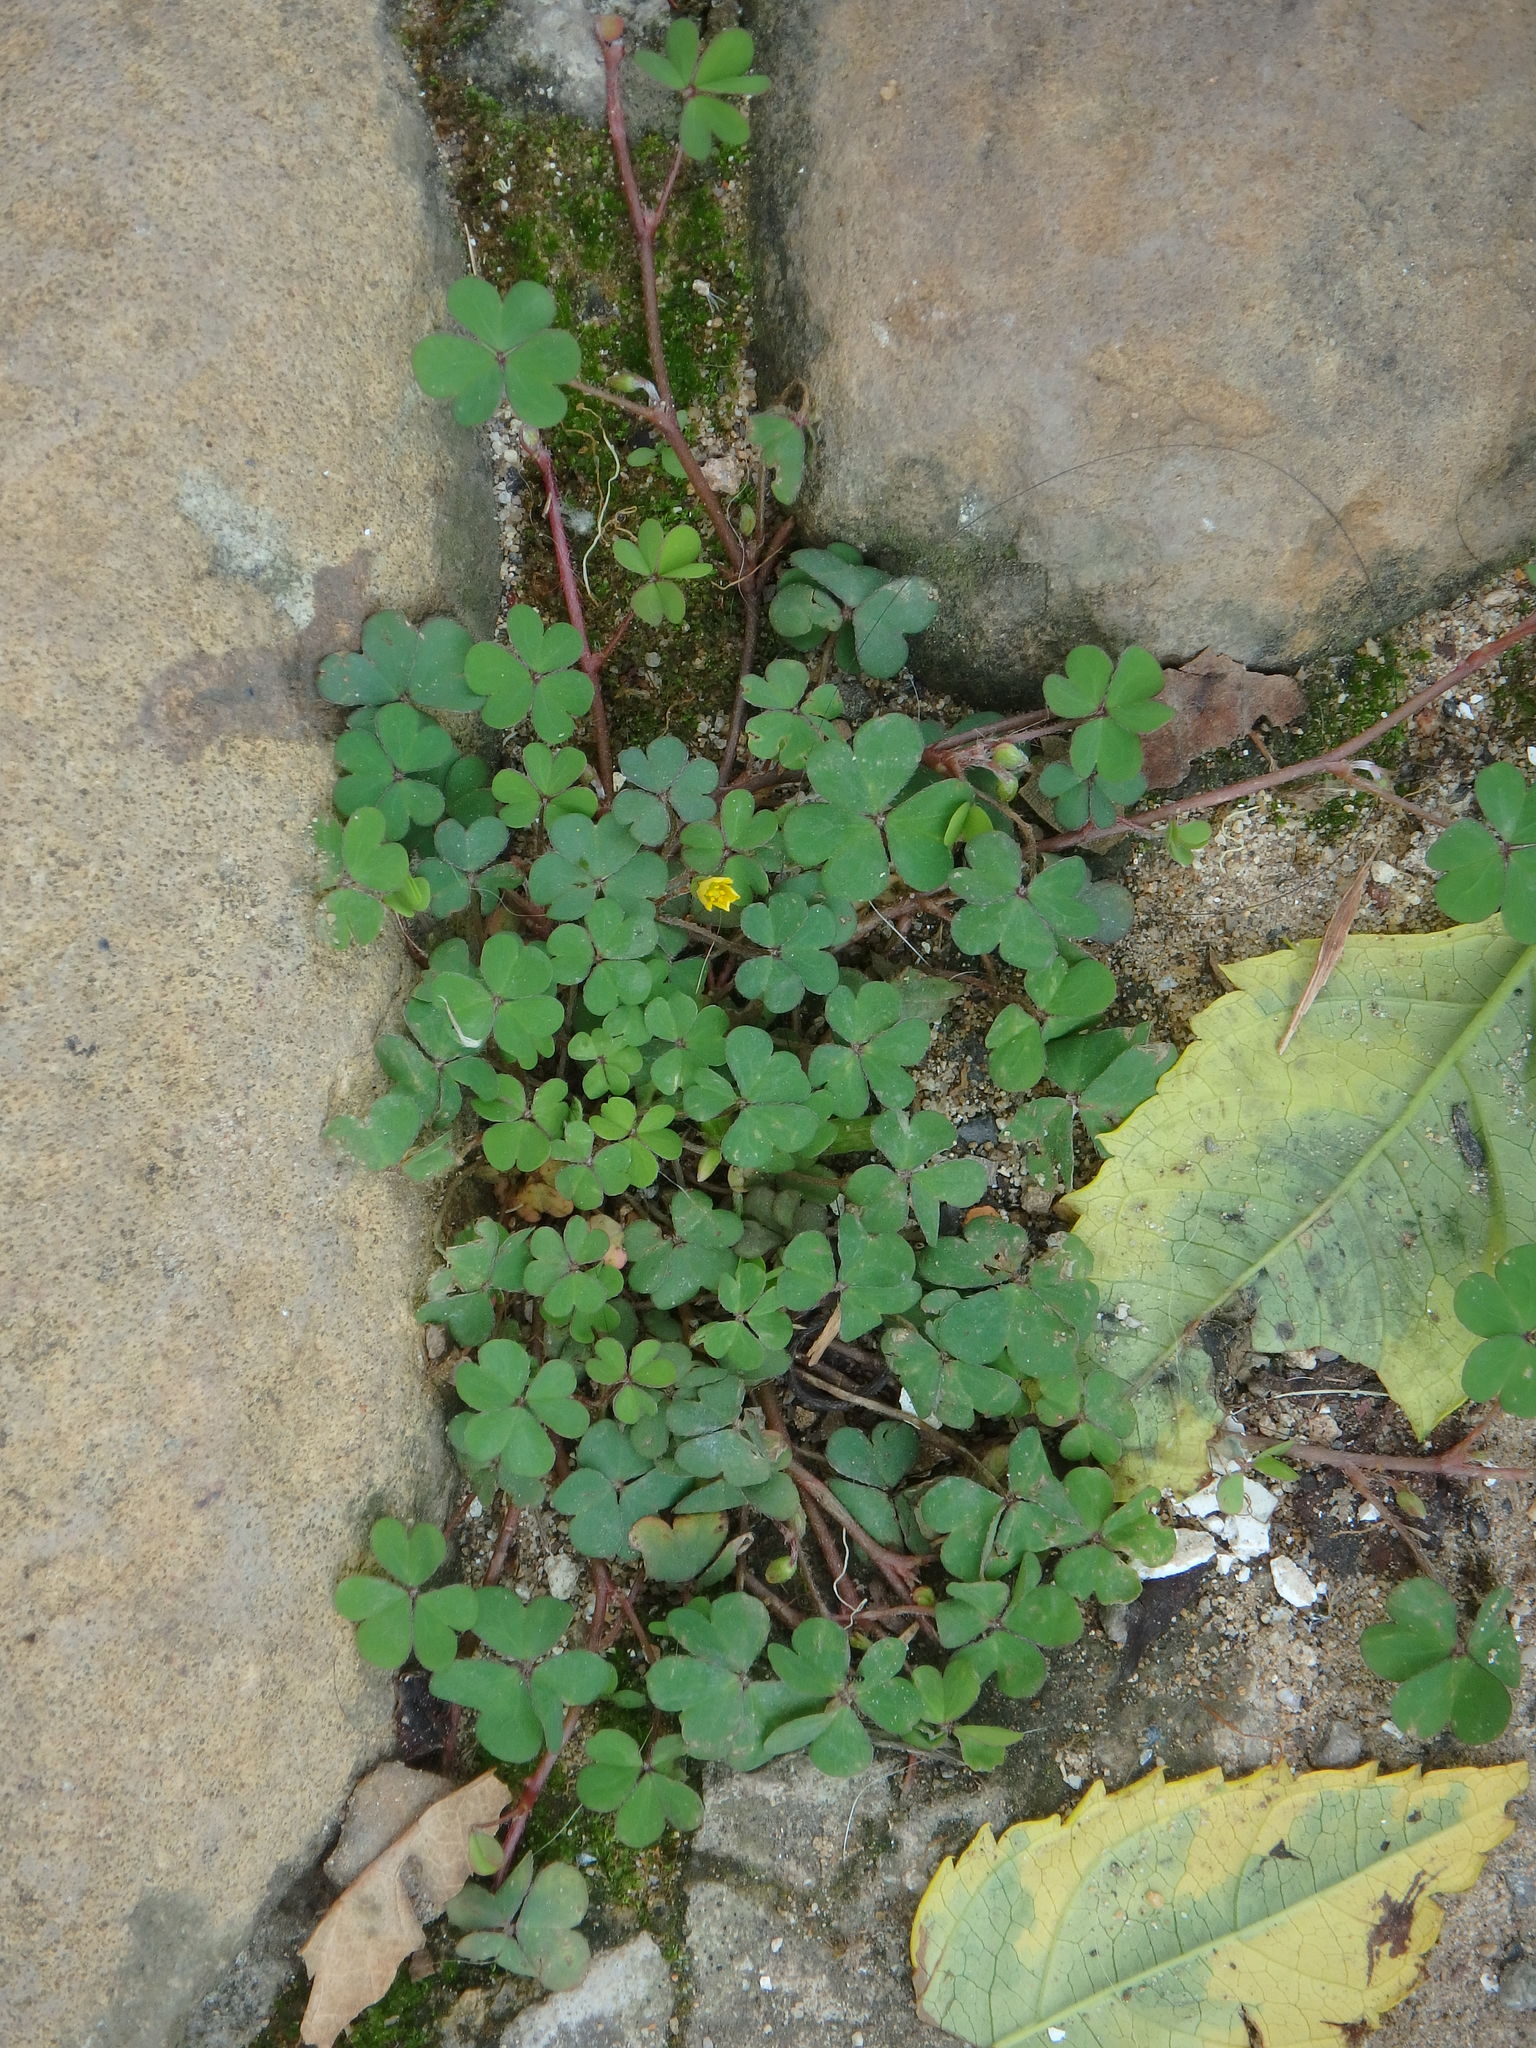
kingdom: Plantae
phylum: Tracheophyta
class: Magnoliopsida
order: Oxalidales
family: Oxalidaceae
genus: Oxalis
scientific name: Oxalis corniculata
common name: Procumbent yellow-sorrel
